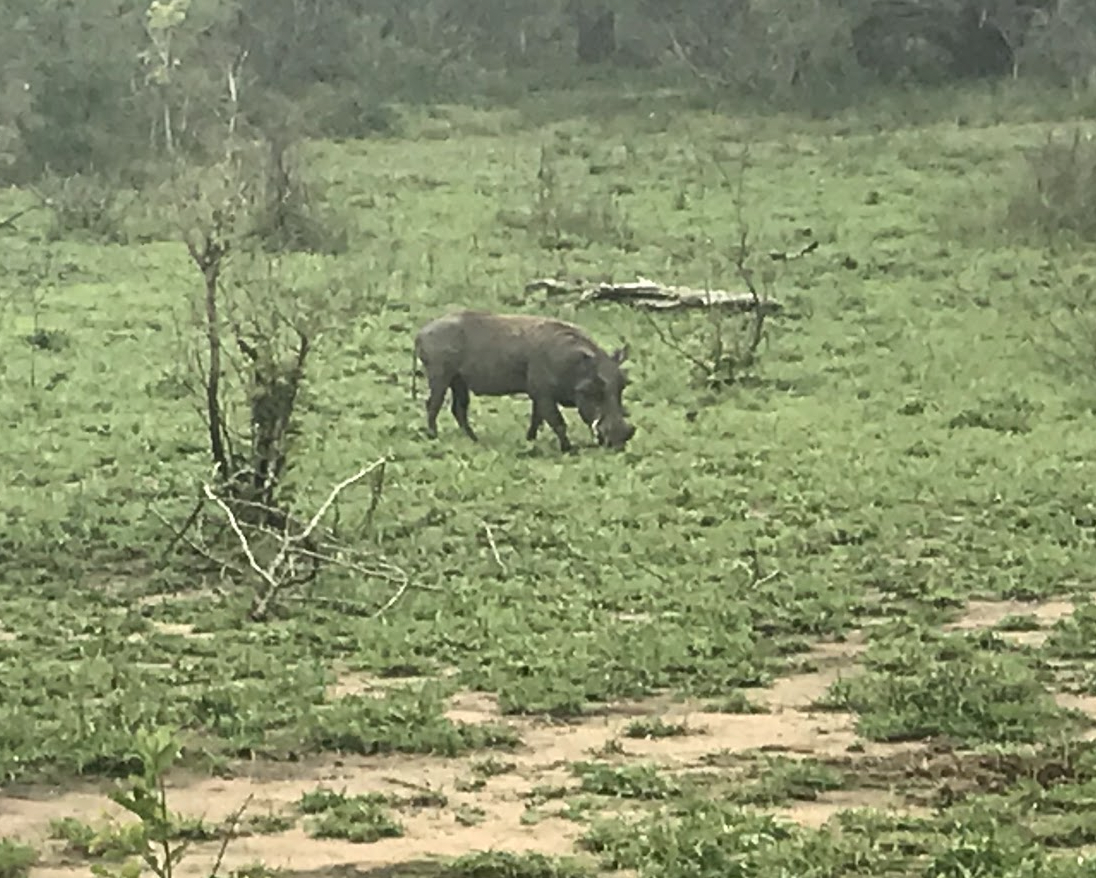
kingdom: Animalia
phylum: Chordata
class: Mammalia
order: Artiodactyla
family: Suidae
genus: Phacochoerus
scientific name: Phacochoerus africanus
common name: Common warthog
